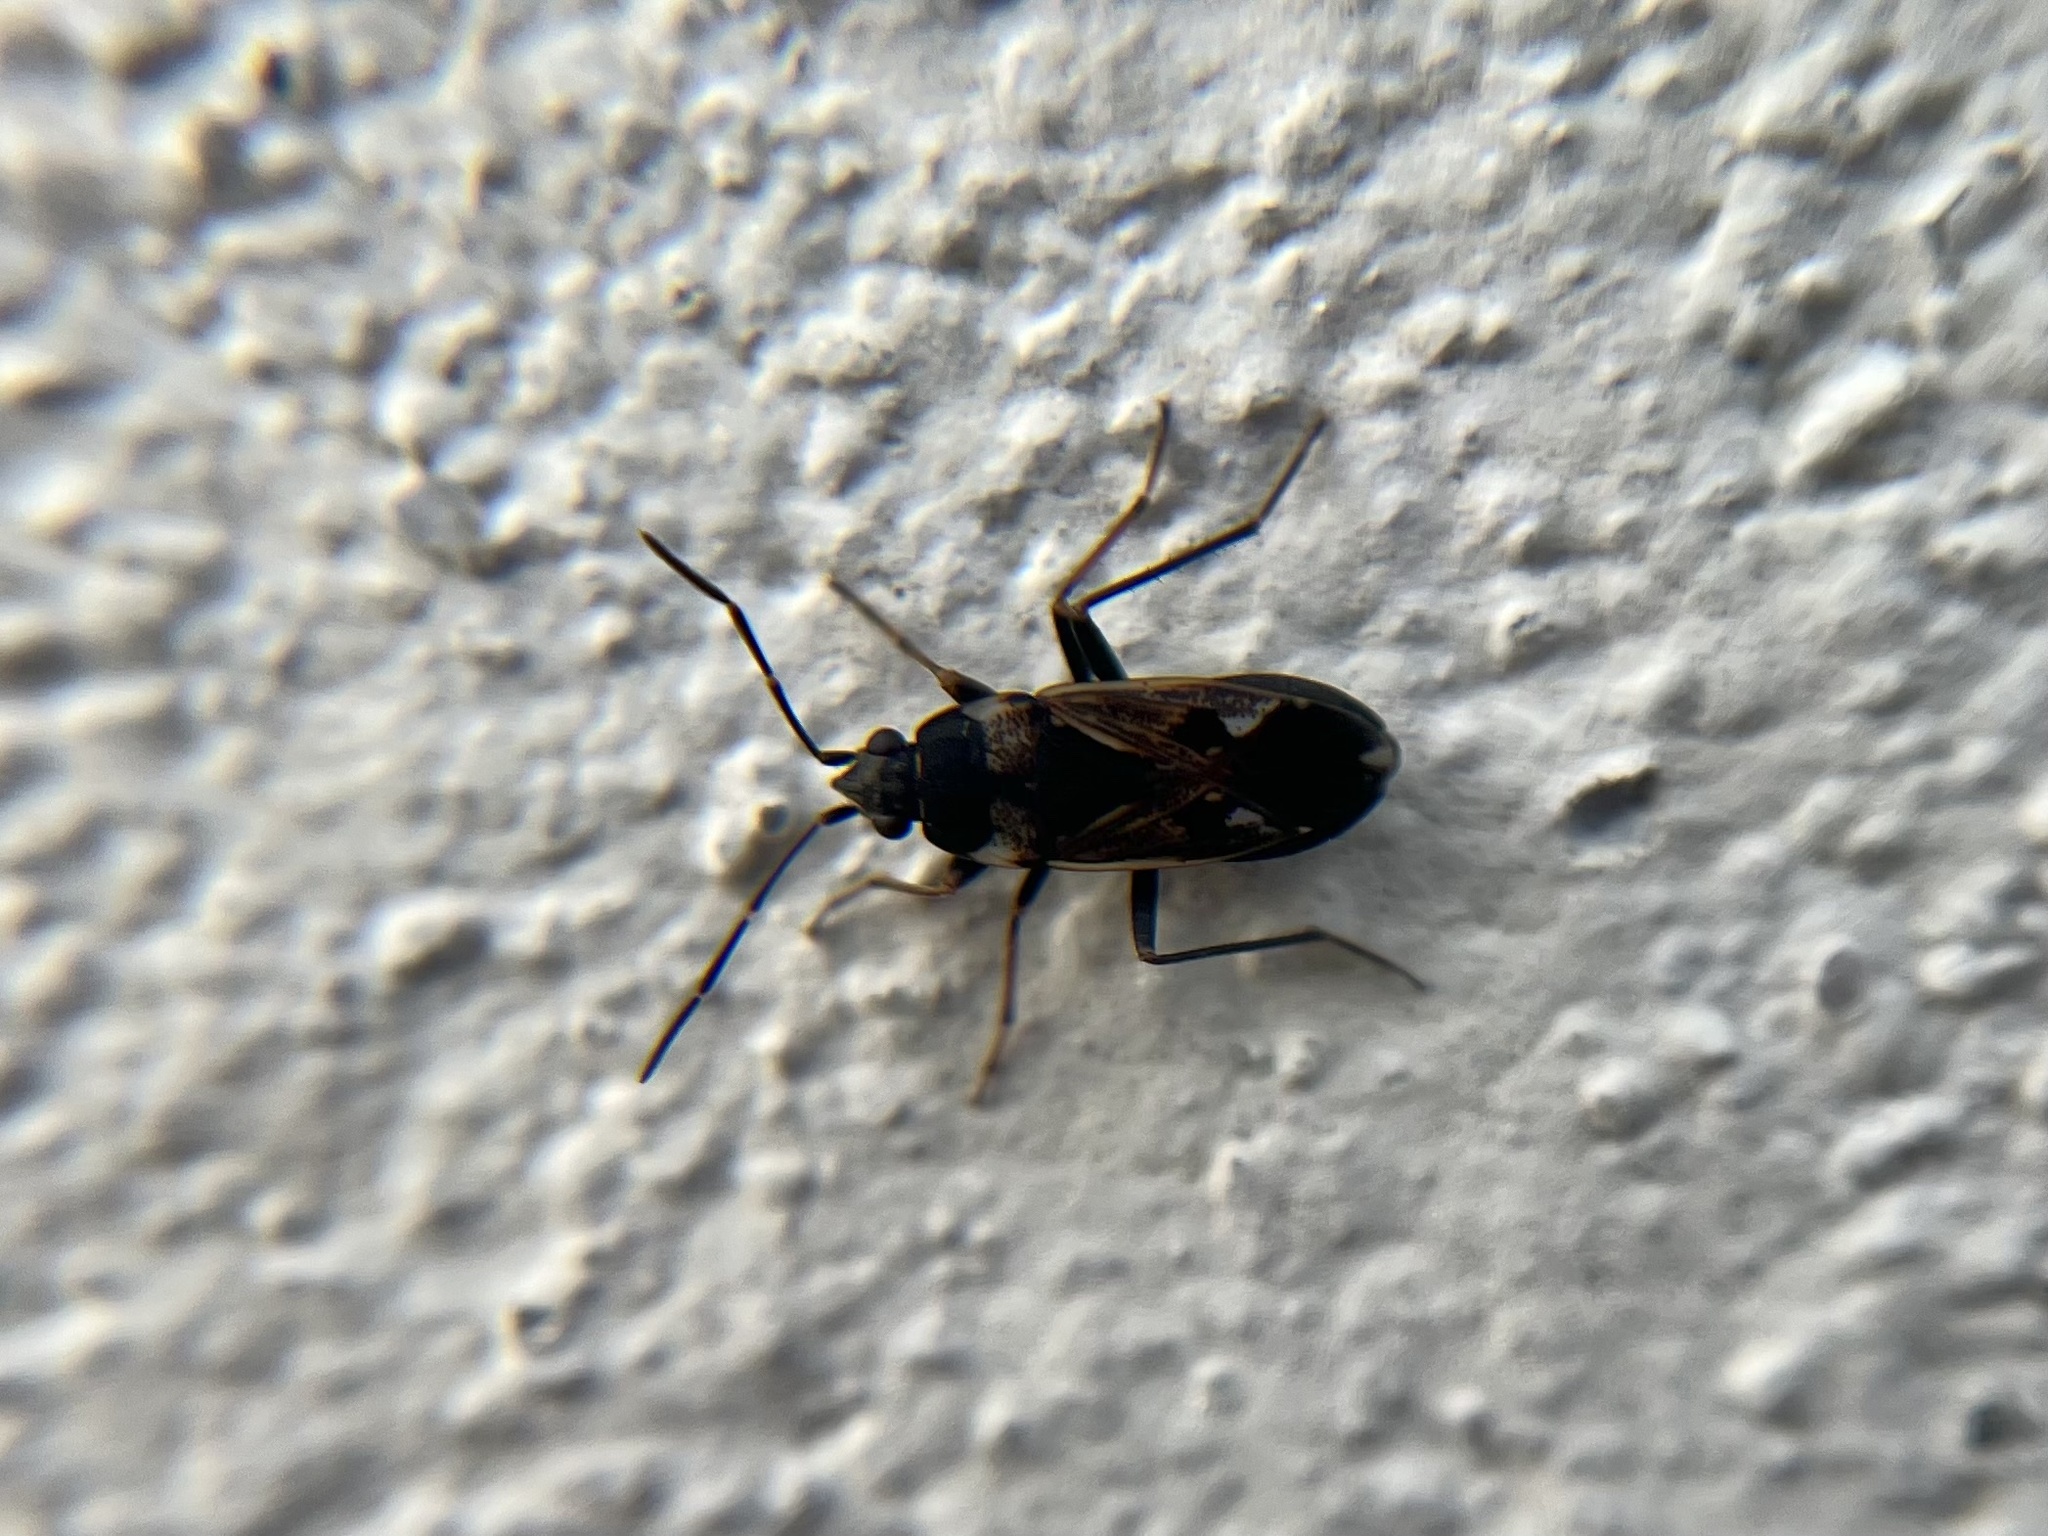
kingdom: Animalia
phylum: Arthropoda
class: Insecta
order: Hemiptera
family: Rhyparochromidae
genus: Rhyparochromus
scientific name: Rhyparochromus vulgaris
